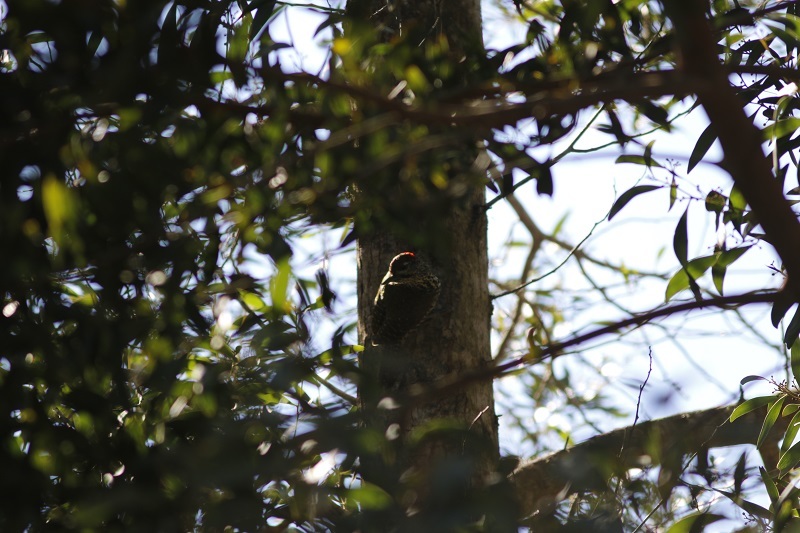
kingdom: Animalia
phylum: Chordata
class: Aves
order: Piciformes
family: Picidae
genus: Campethera
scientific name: Campethera notata
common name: Knysna woodpecker
